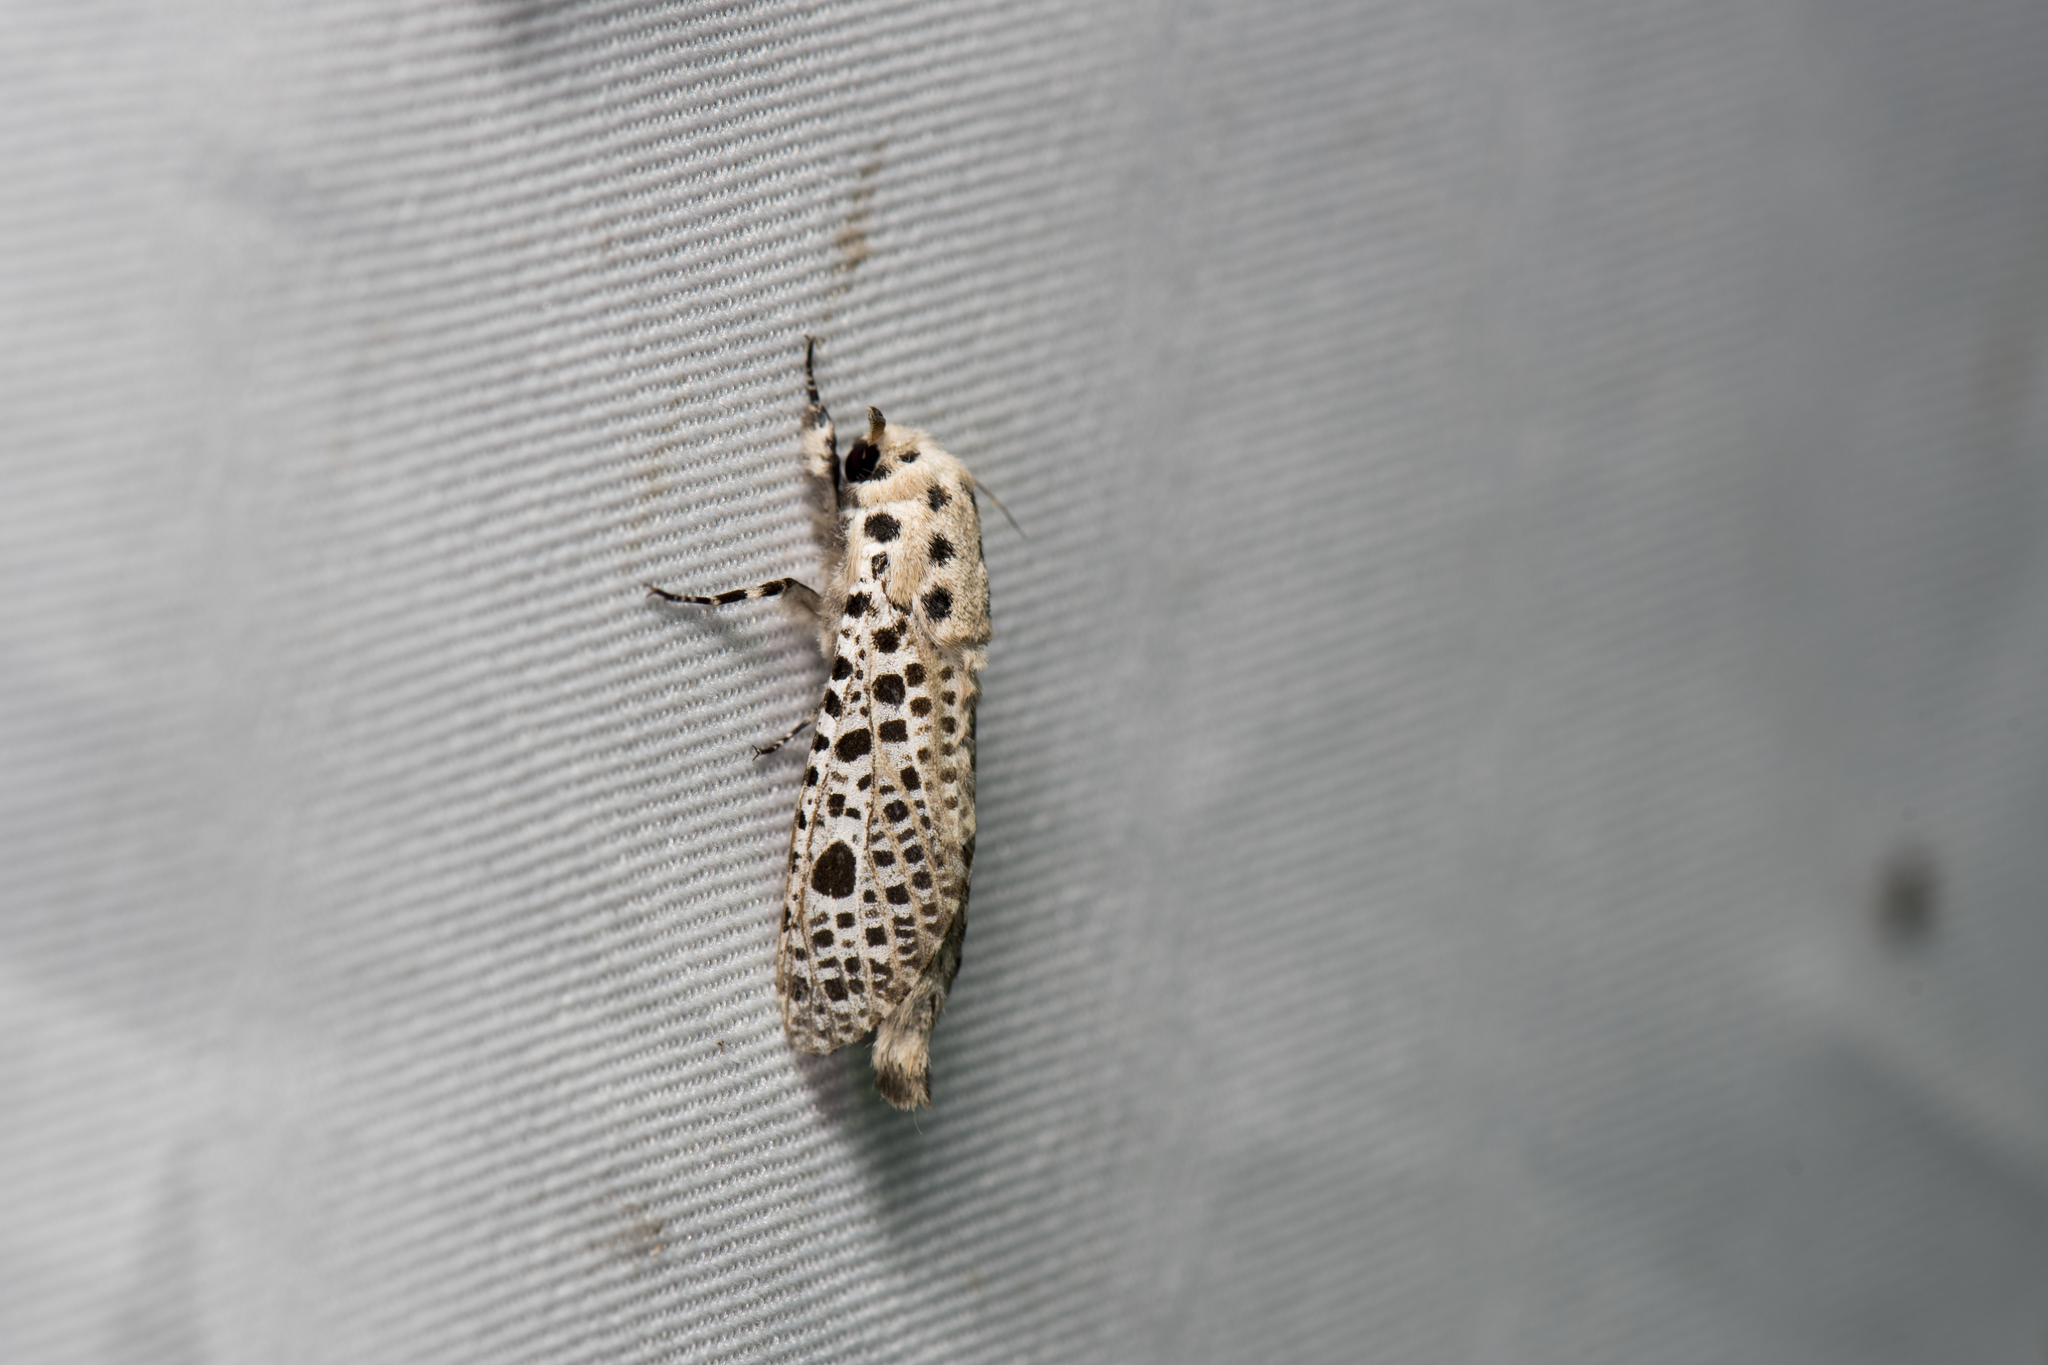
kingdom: Animalia
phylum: Arthropoda
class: Insecta
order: Lepidoptera
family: Cossidae
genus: Rapdalus
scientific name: Rapdalus pardicolor
